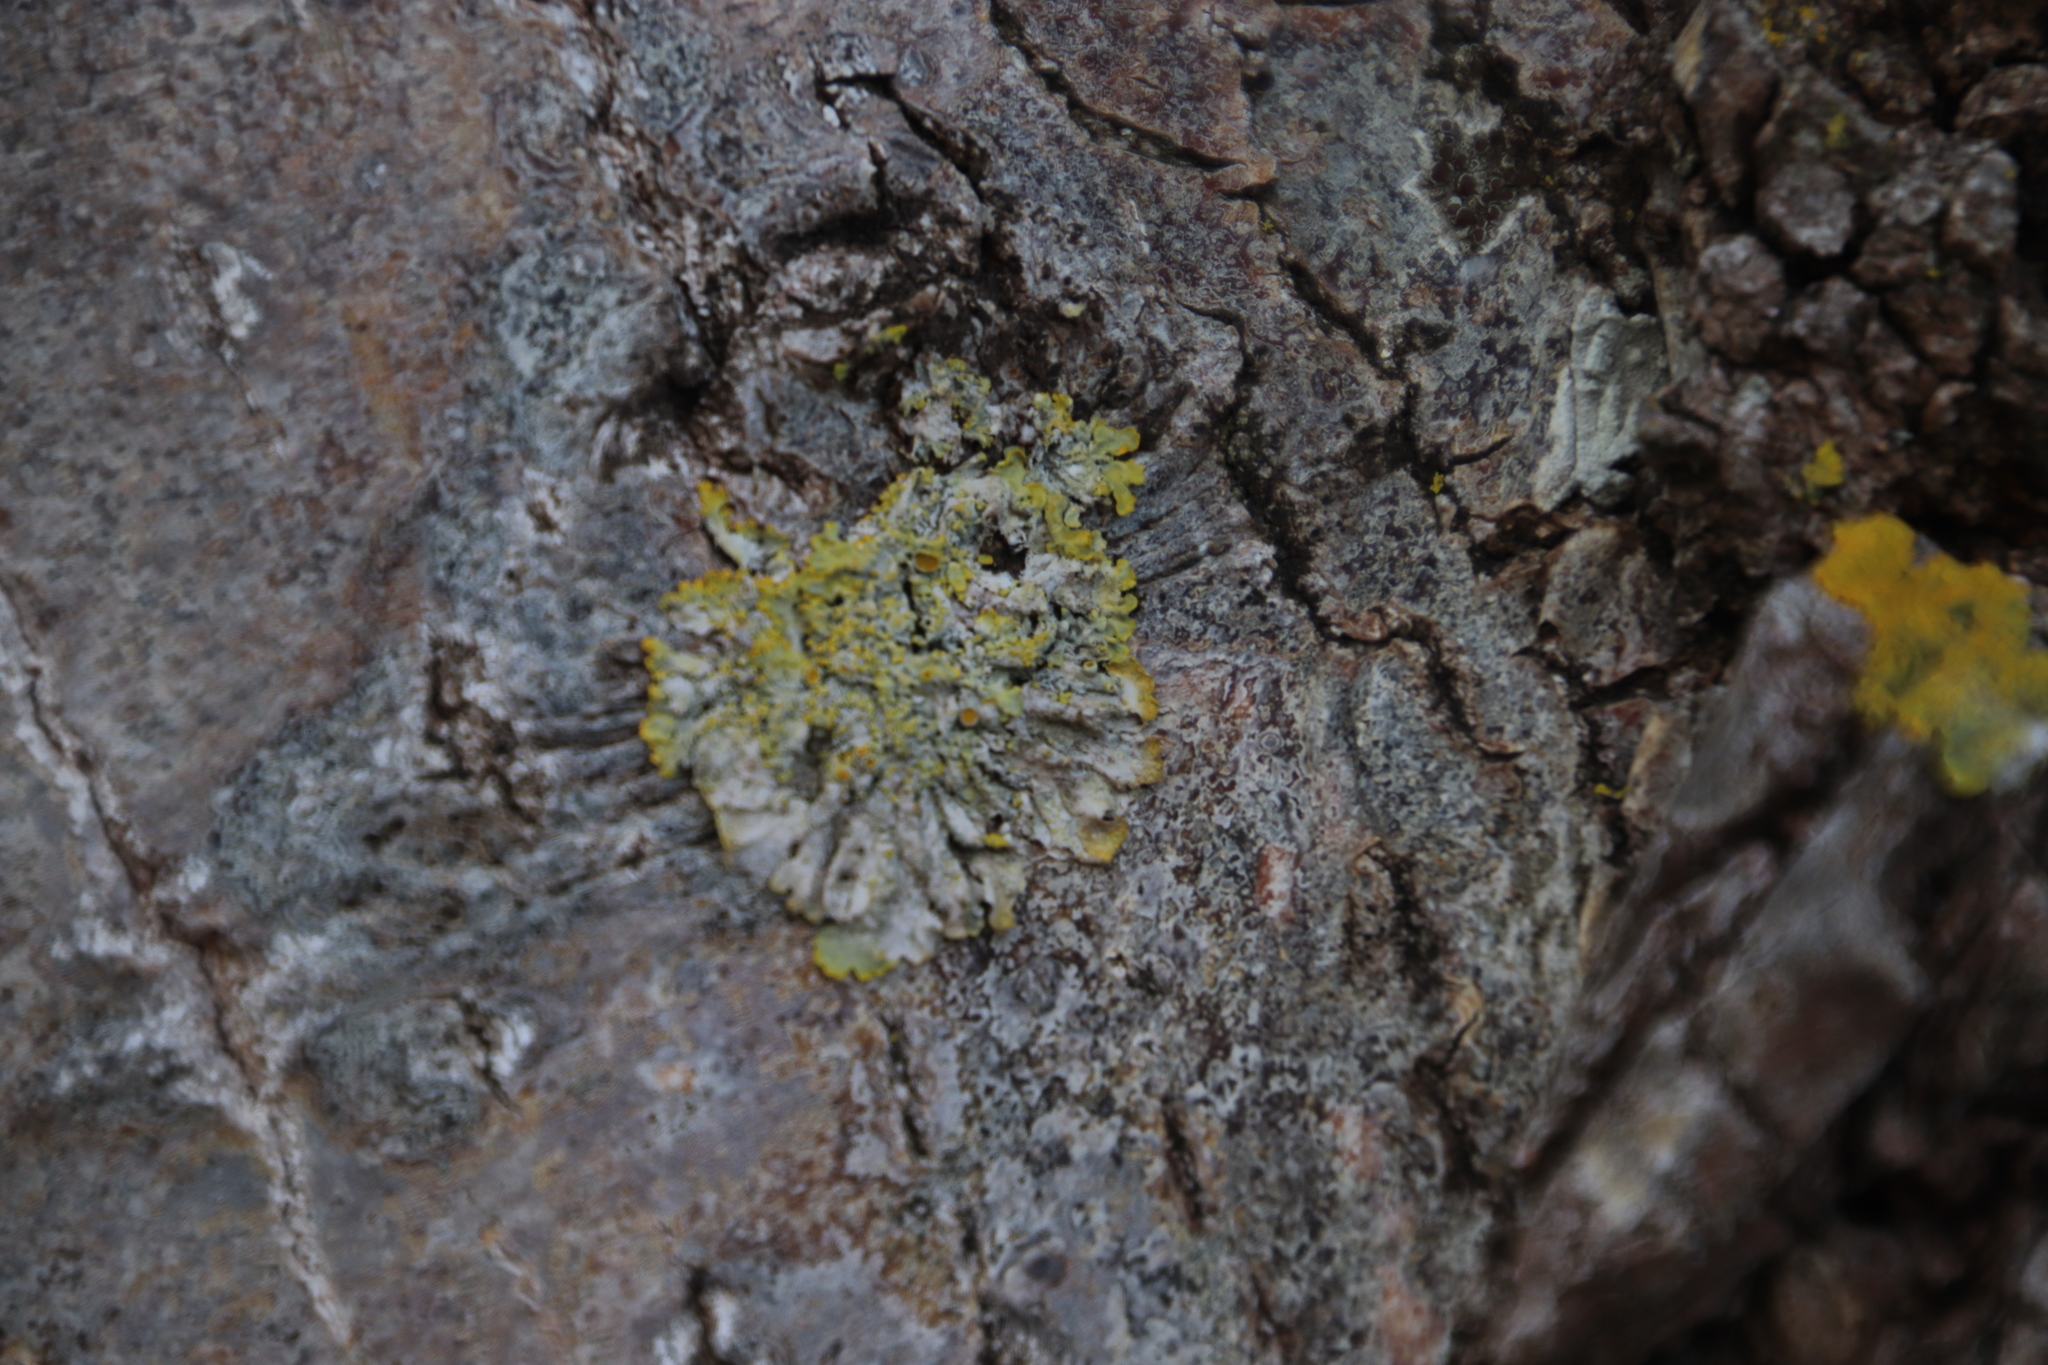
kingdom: Fungi
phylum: Ascomycota
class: Lecanoromycetes
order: Teloschistales
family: Teloschistaceae
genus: Xanthoria
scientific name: Xanthoria parietina
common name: Common orange lichen
